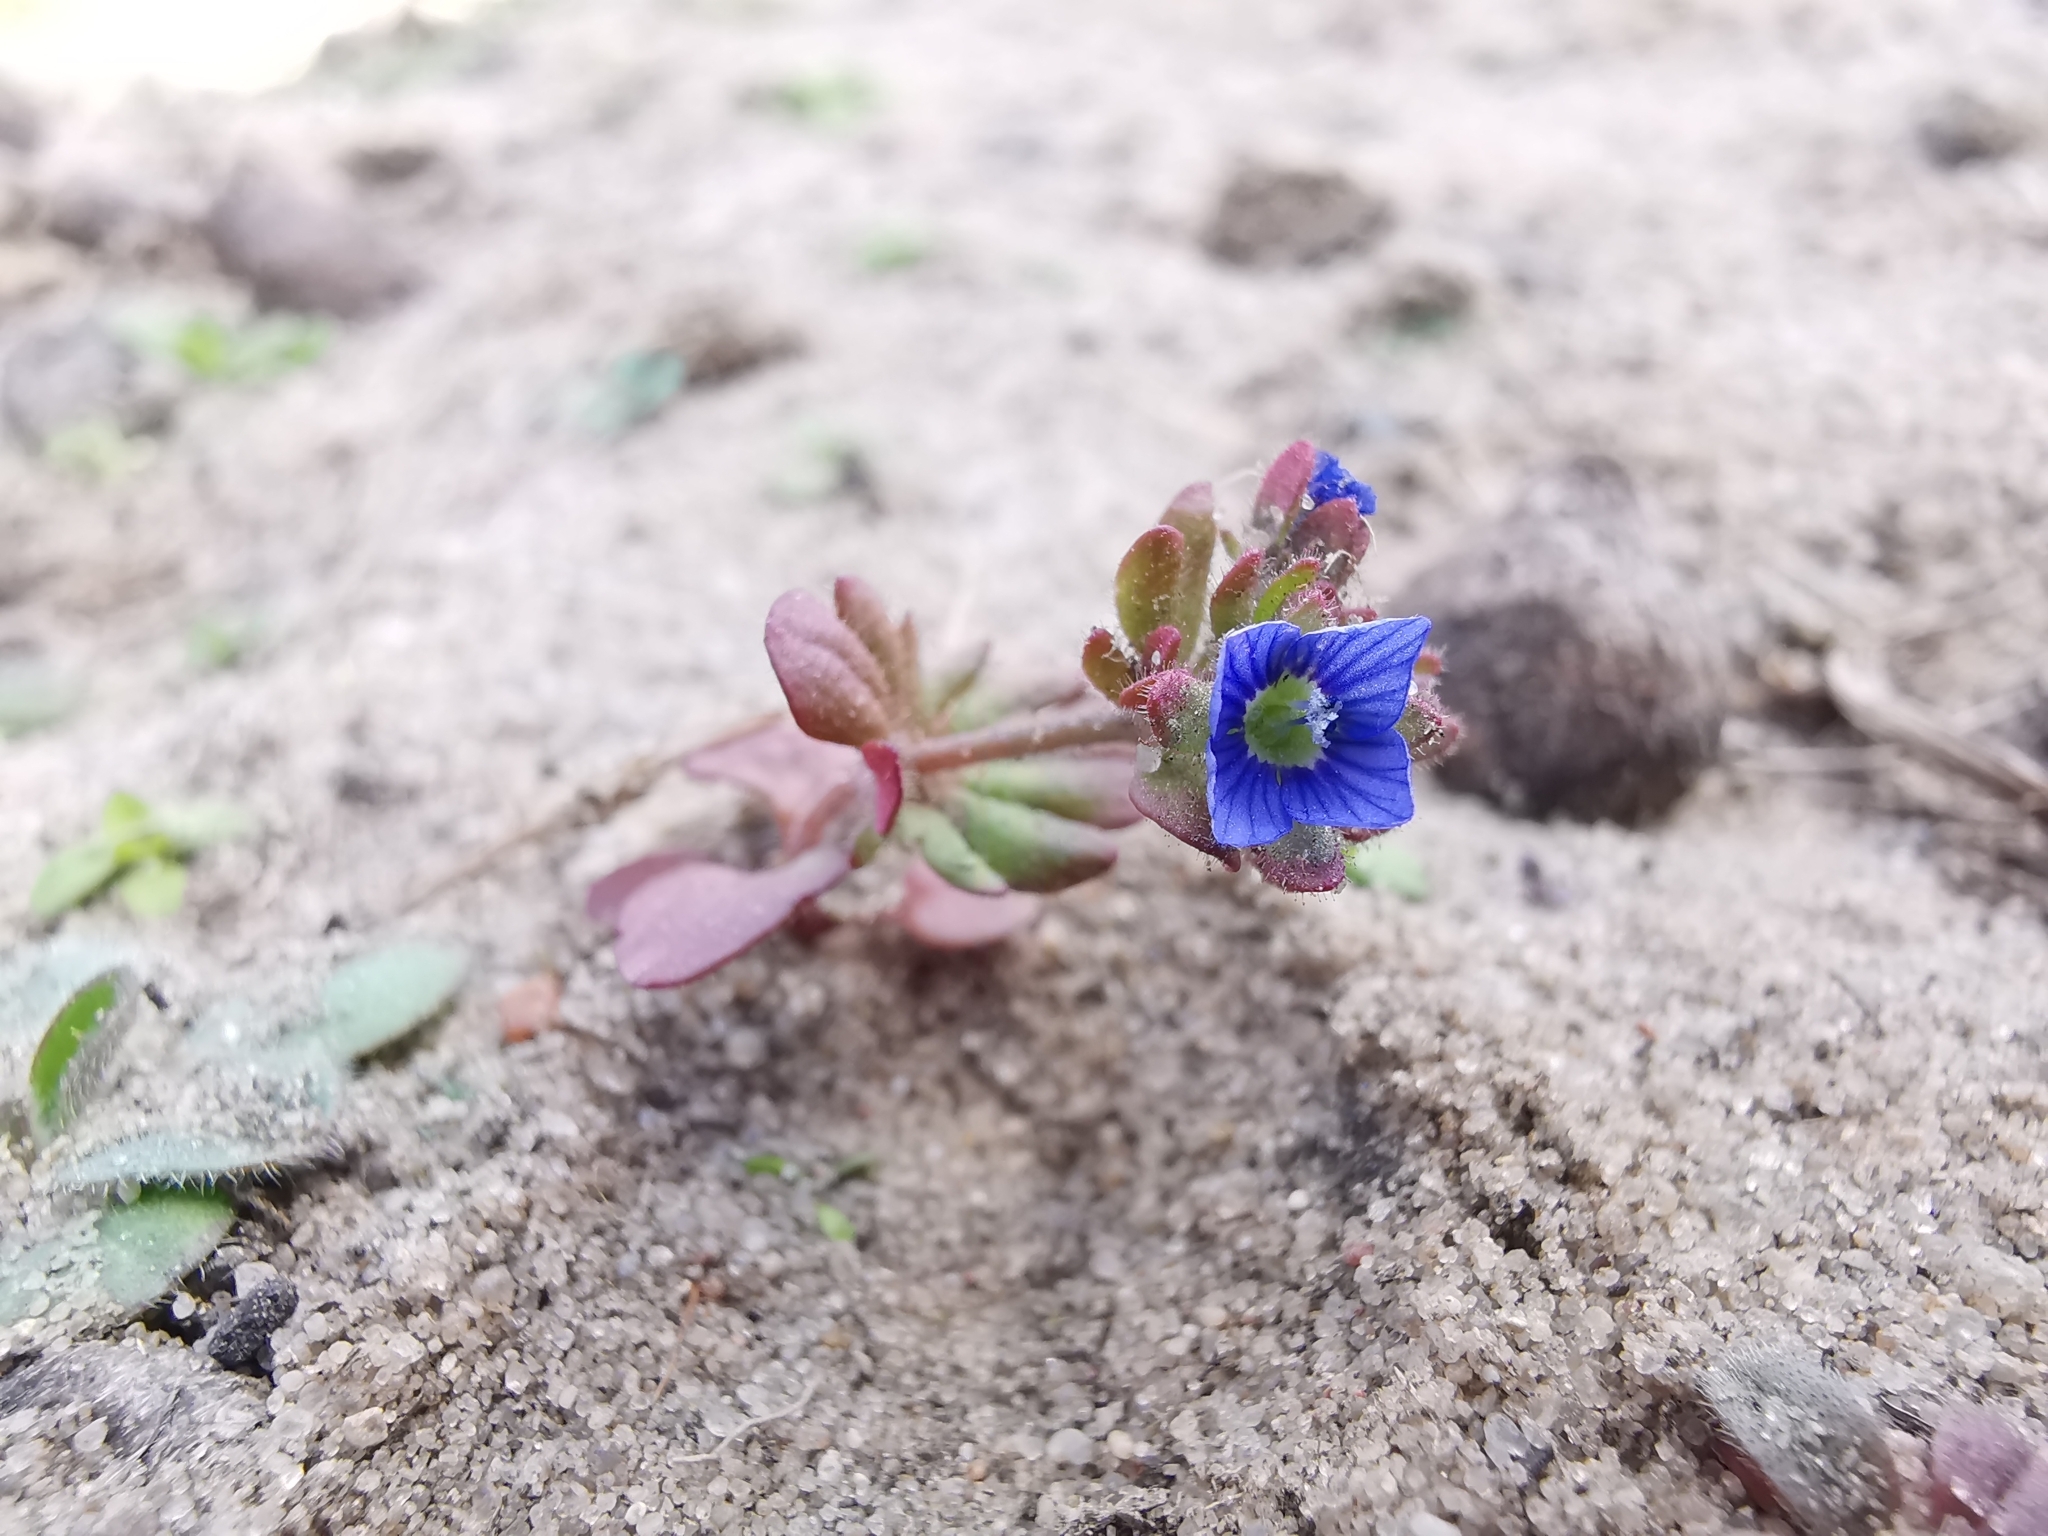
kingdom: Plantae
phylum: Tracheophyta
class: Magnoliopsida
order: Lamiales
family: Plantaginaceae
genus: Veronica
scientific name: Veronica triphyllos
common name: Fingered speedwell
